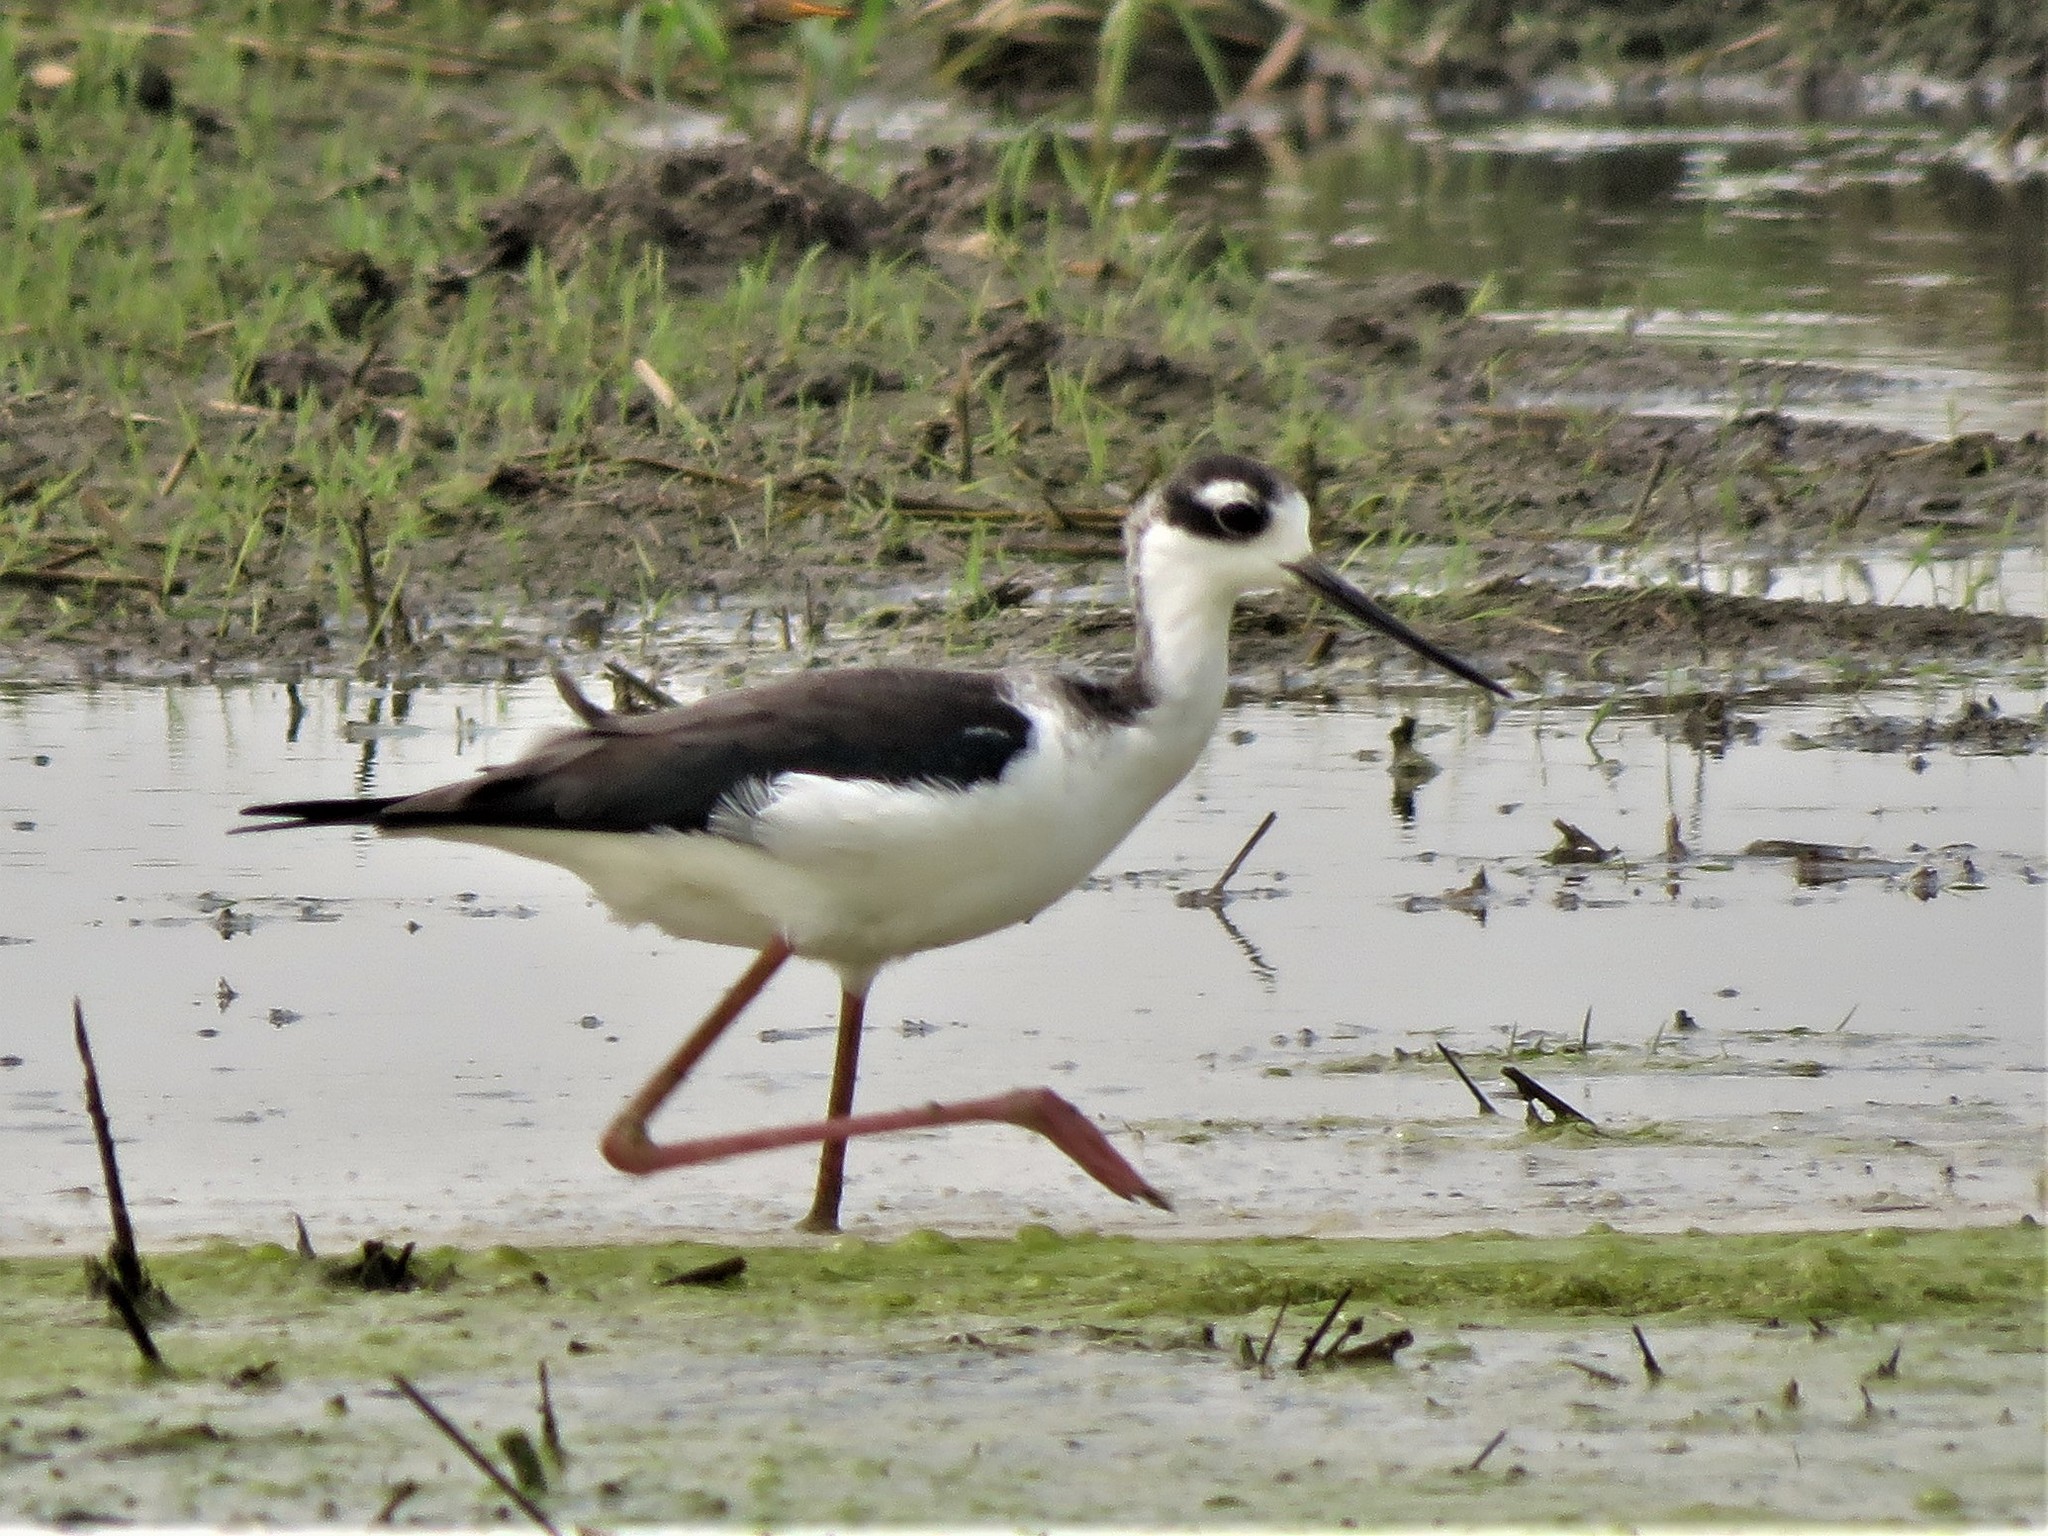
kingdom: Animalia
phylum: Chordata
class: Aves
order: Charadriiformes
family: Recurvirostridae
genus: Himantopus
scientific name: Himantopus mexicanus
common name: Black-necked stilt
